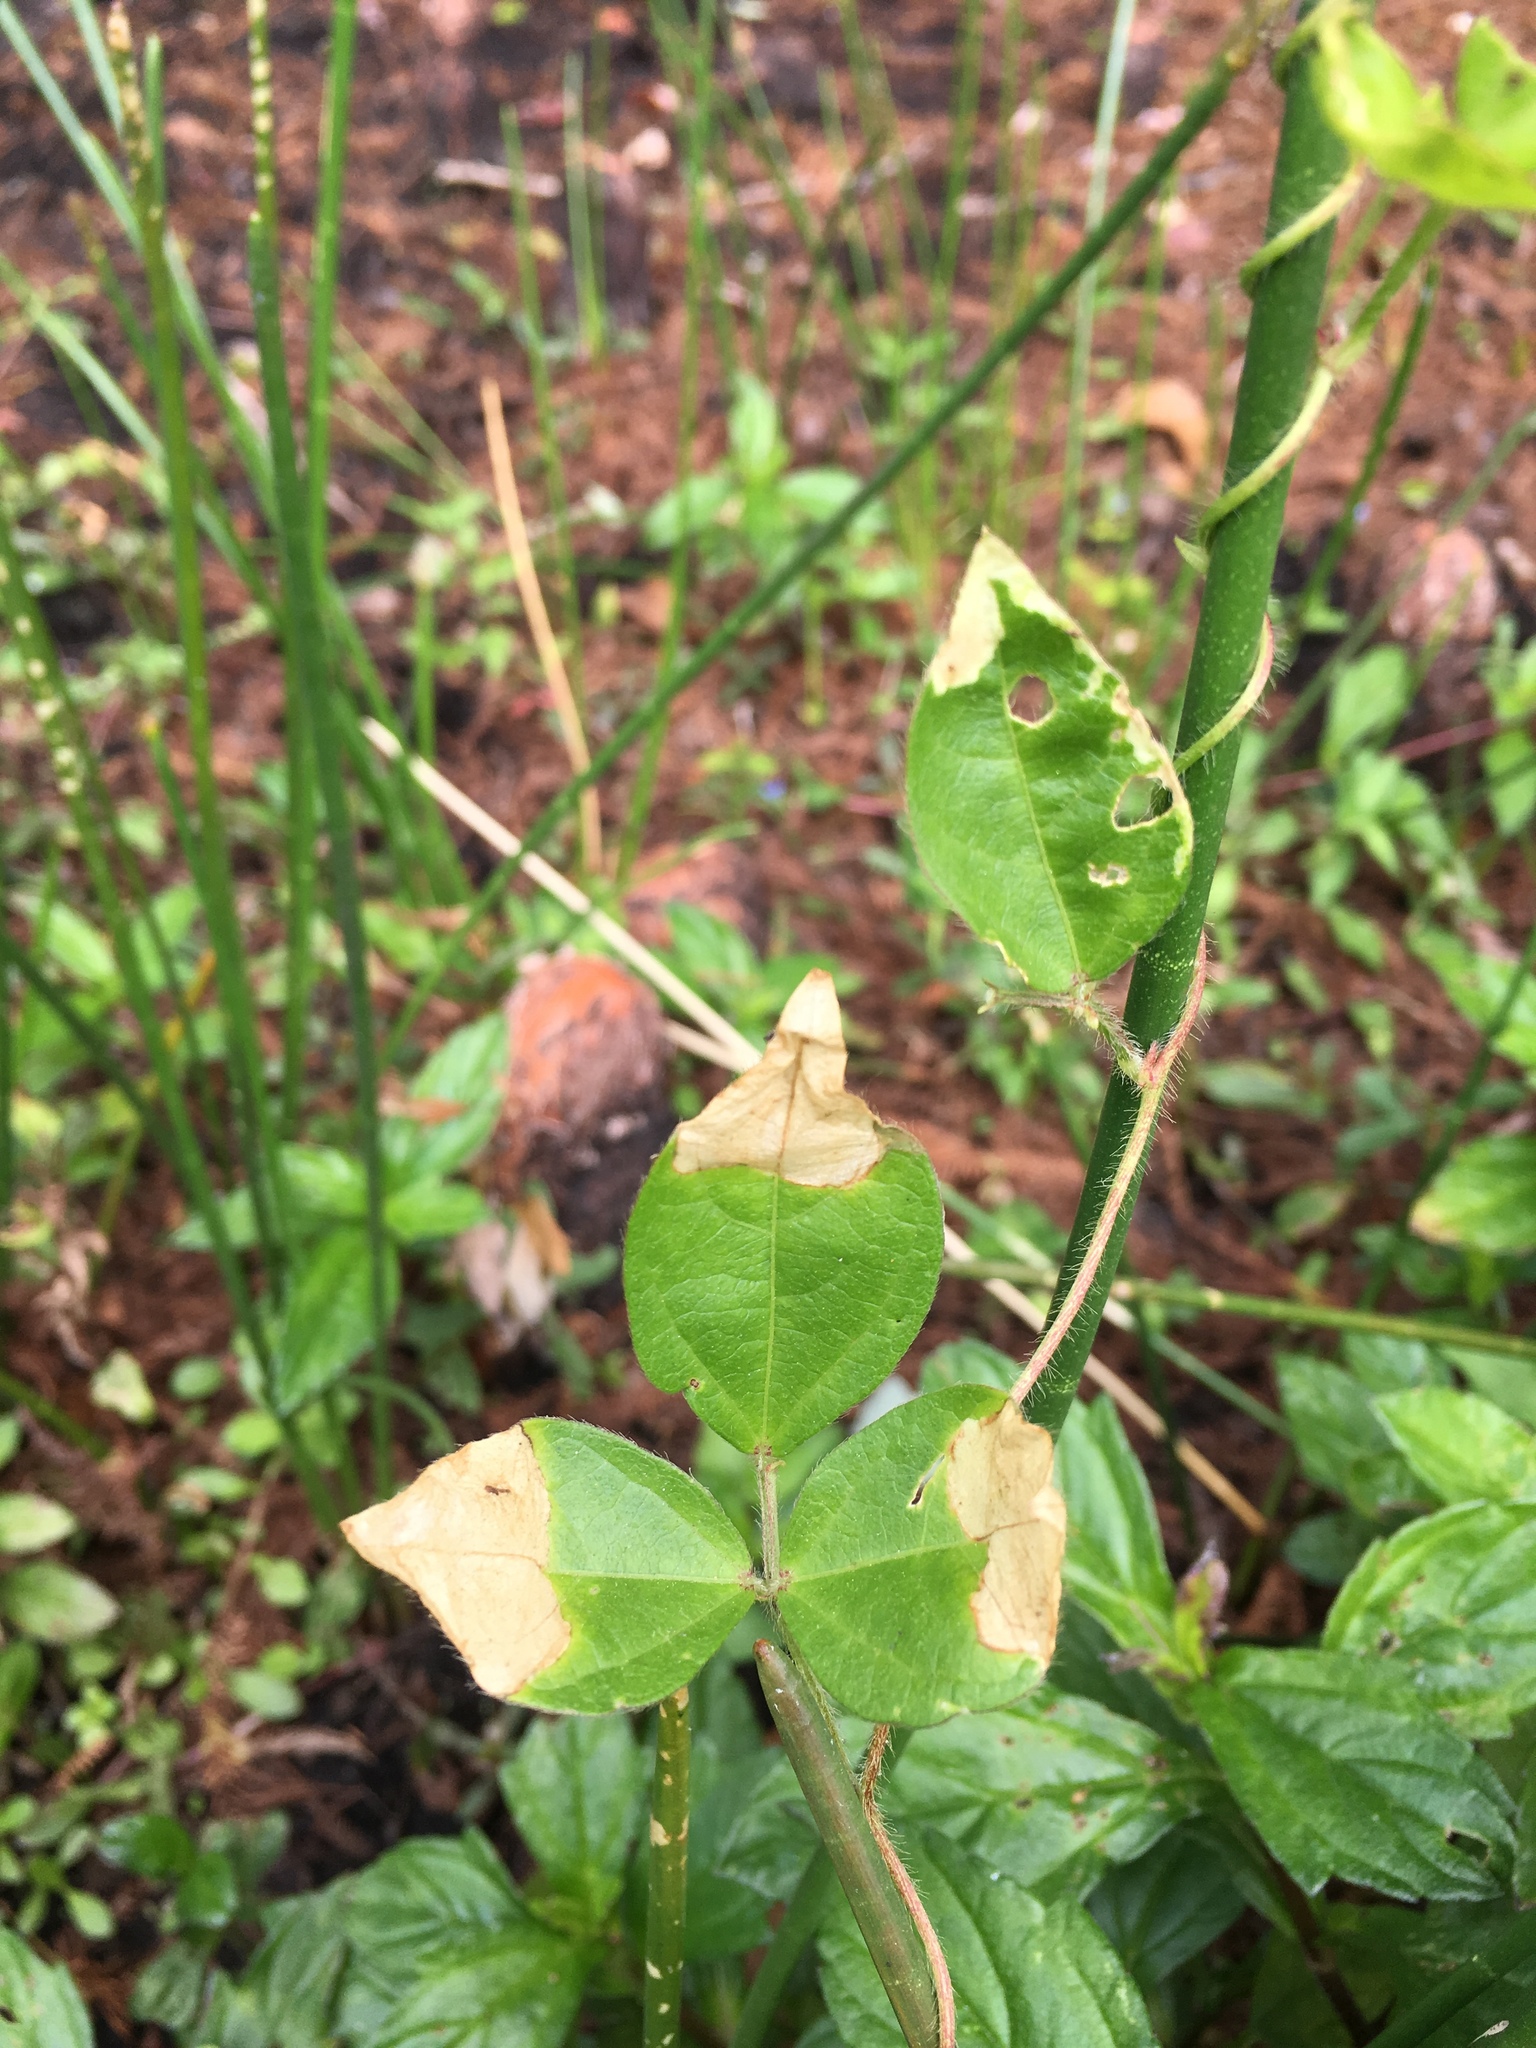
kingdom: Plantae
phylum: Tracheophyta
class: Magnoliopsida
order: Fabales
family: Fabaceae
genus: Vigna
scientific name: Vigna luteola
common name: Hairypod cowpea
